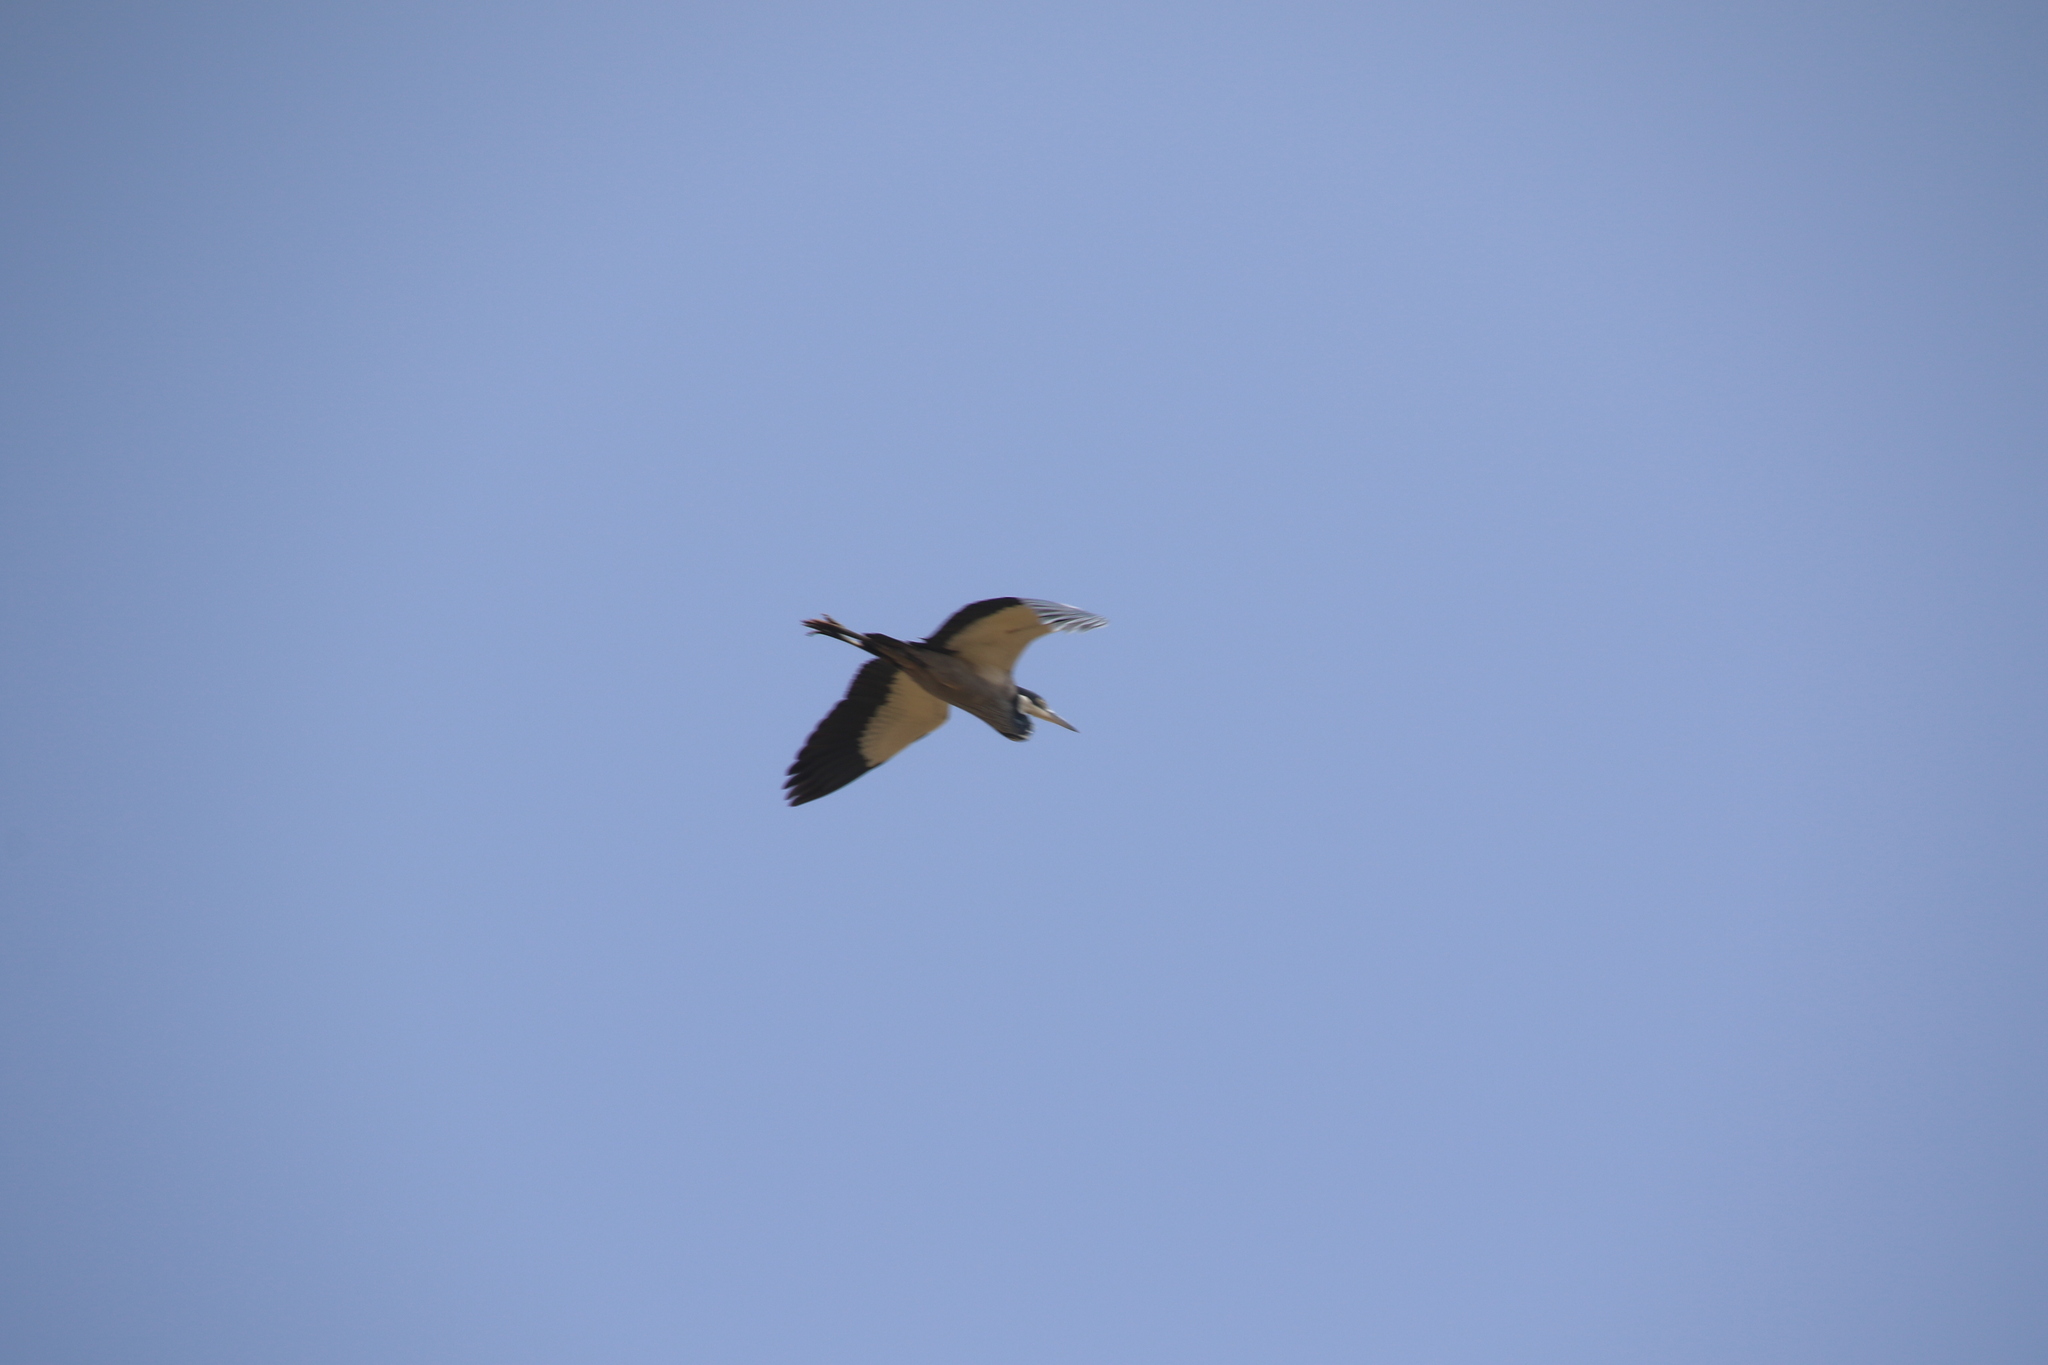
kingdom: Animalia
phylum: Chordata
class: Aves
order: Pelecaniformes
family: Ardeidae
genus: Ardea
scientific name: Ardea melanocephala
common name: Black-headed heron
